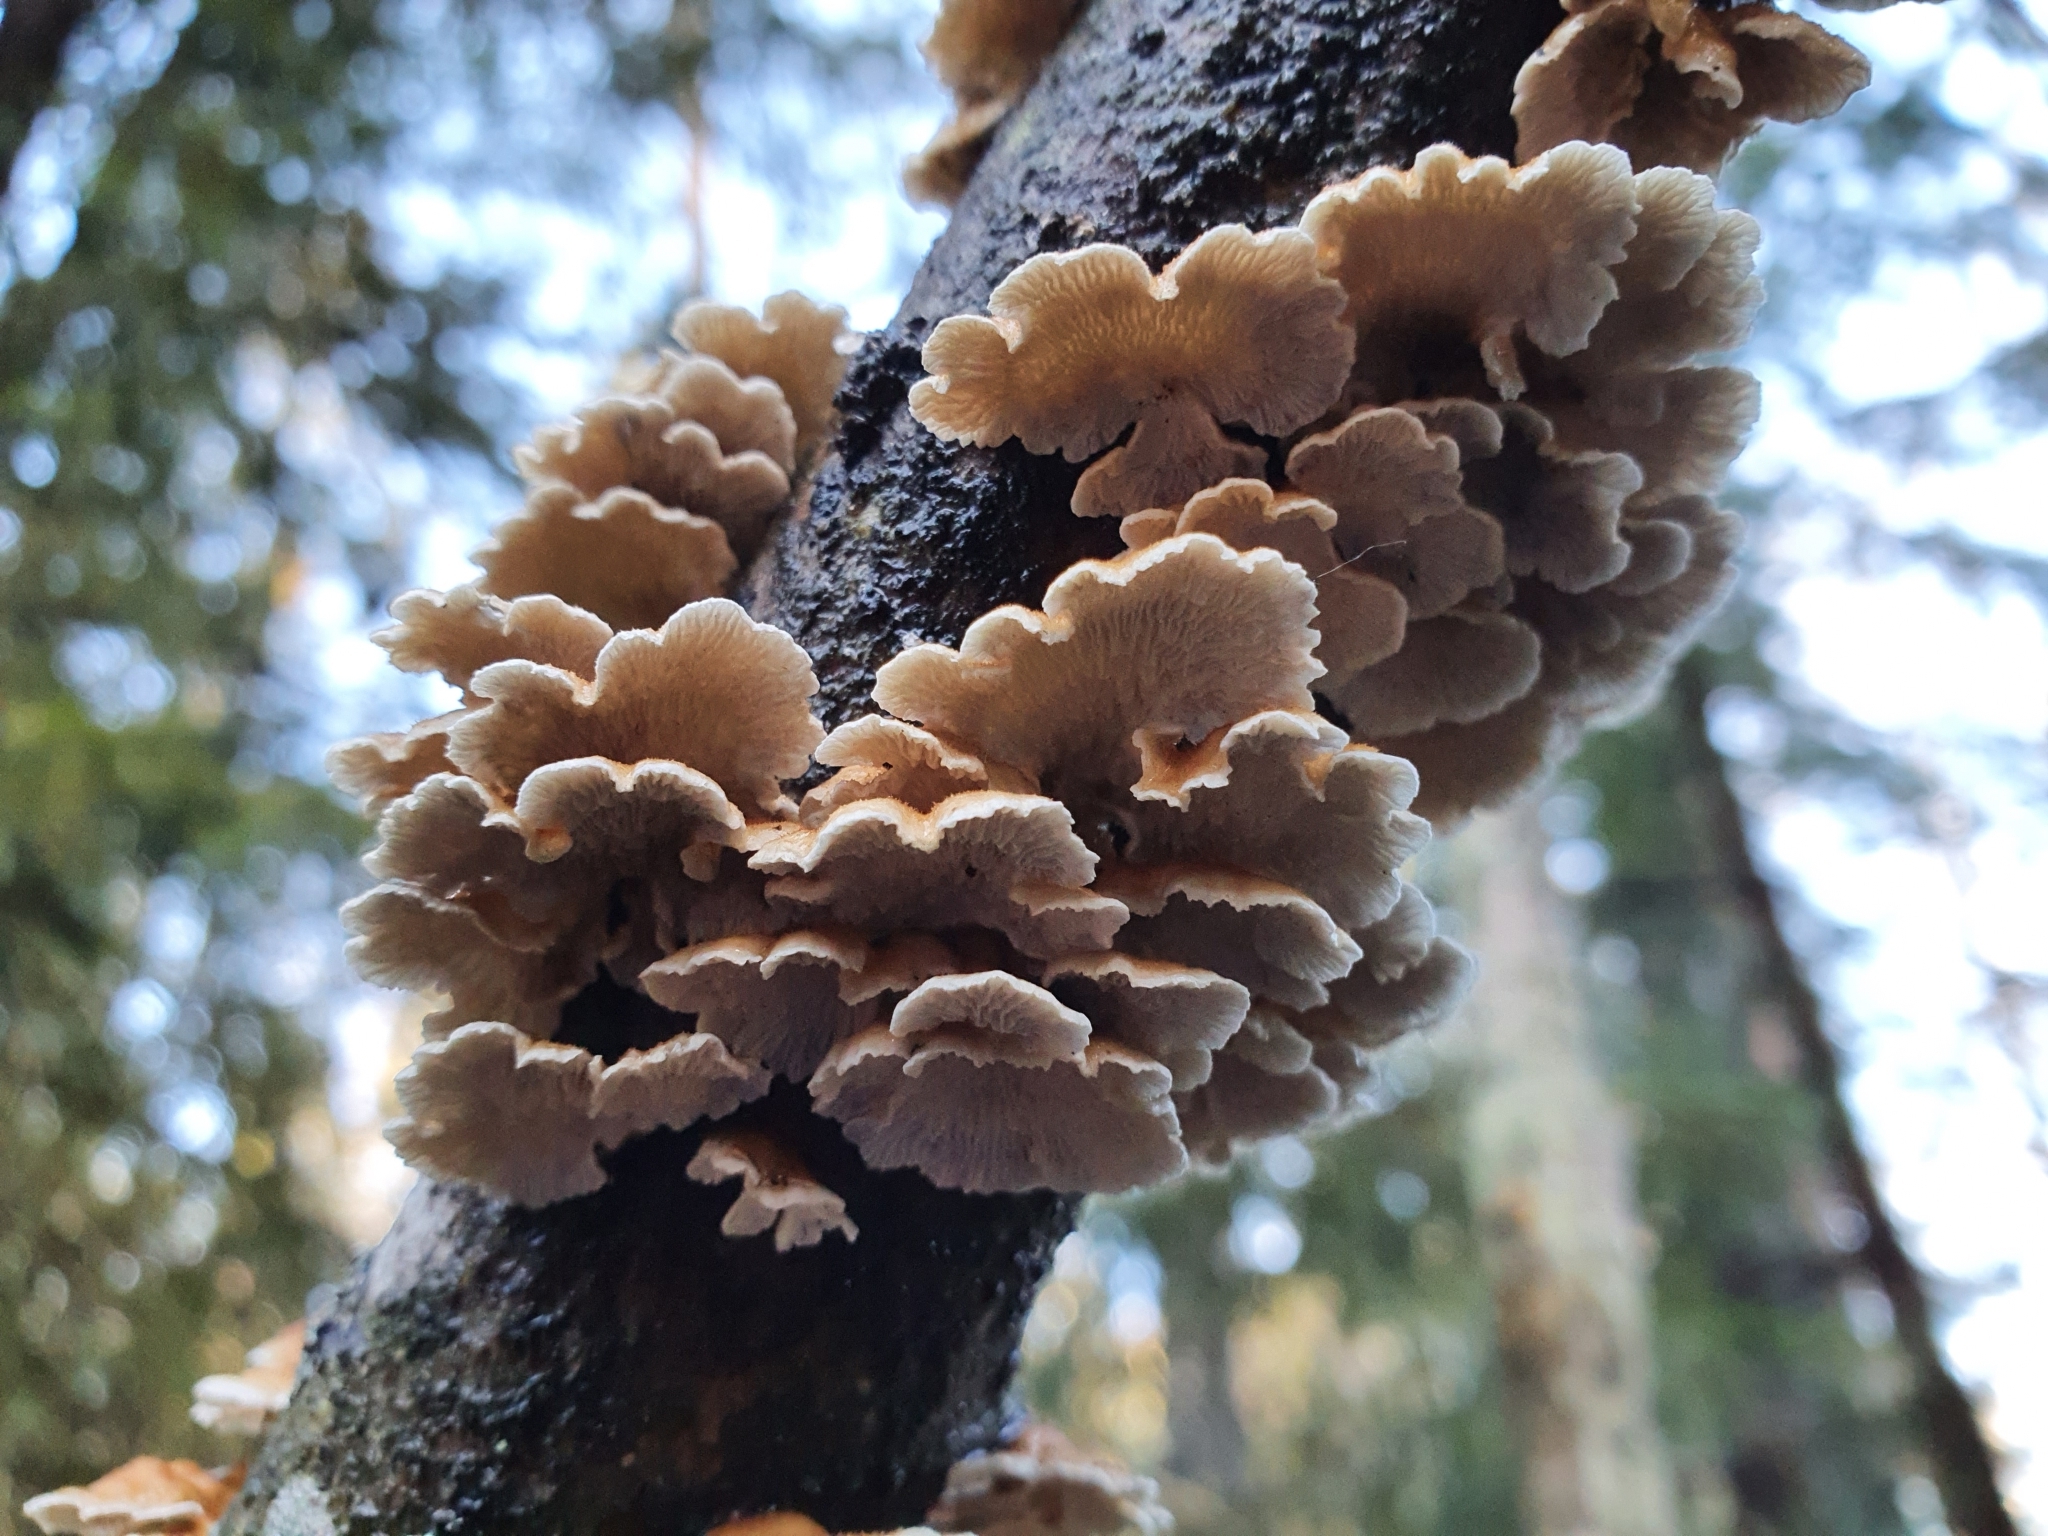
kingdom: Fungi
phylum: Basidiomycota
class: Agaricomycetes
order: Amylocorticiales
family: Amylocorticiaceae
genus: Plicaturopsis
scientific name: Plicaturopsis crispa
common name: Crimped gill
